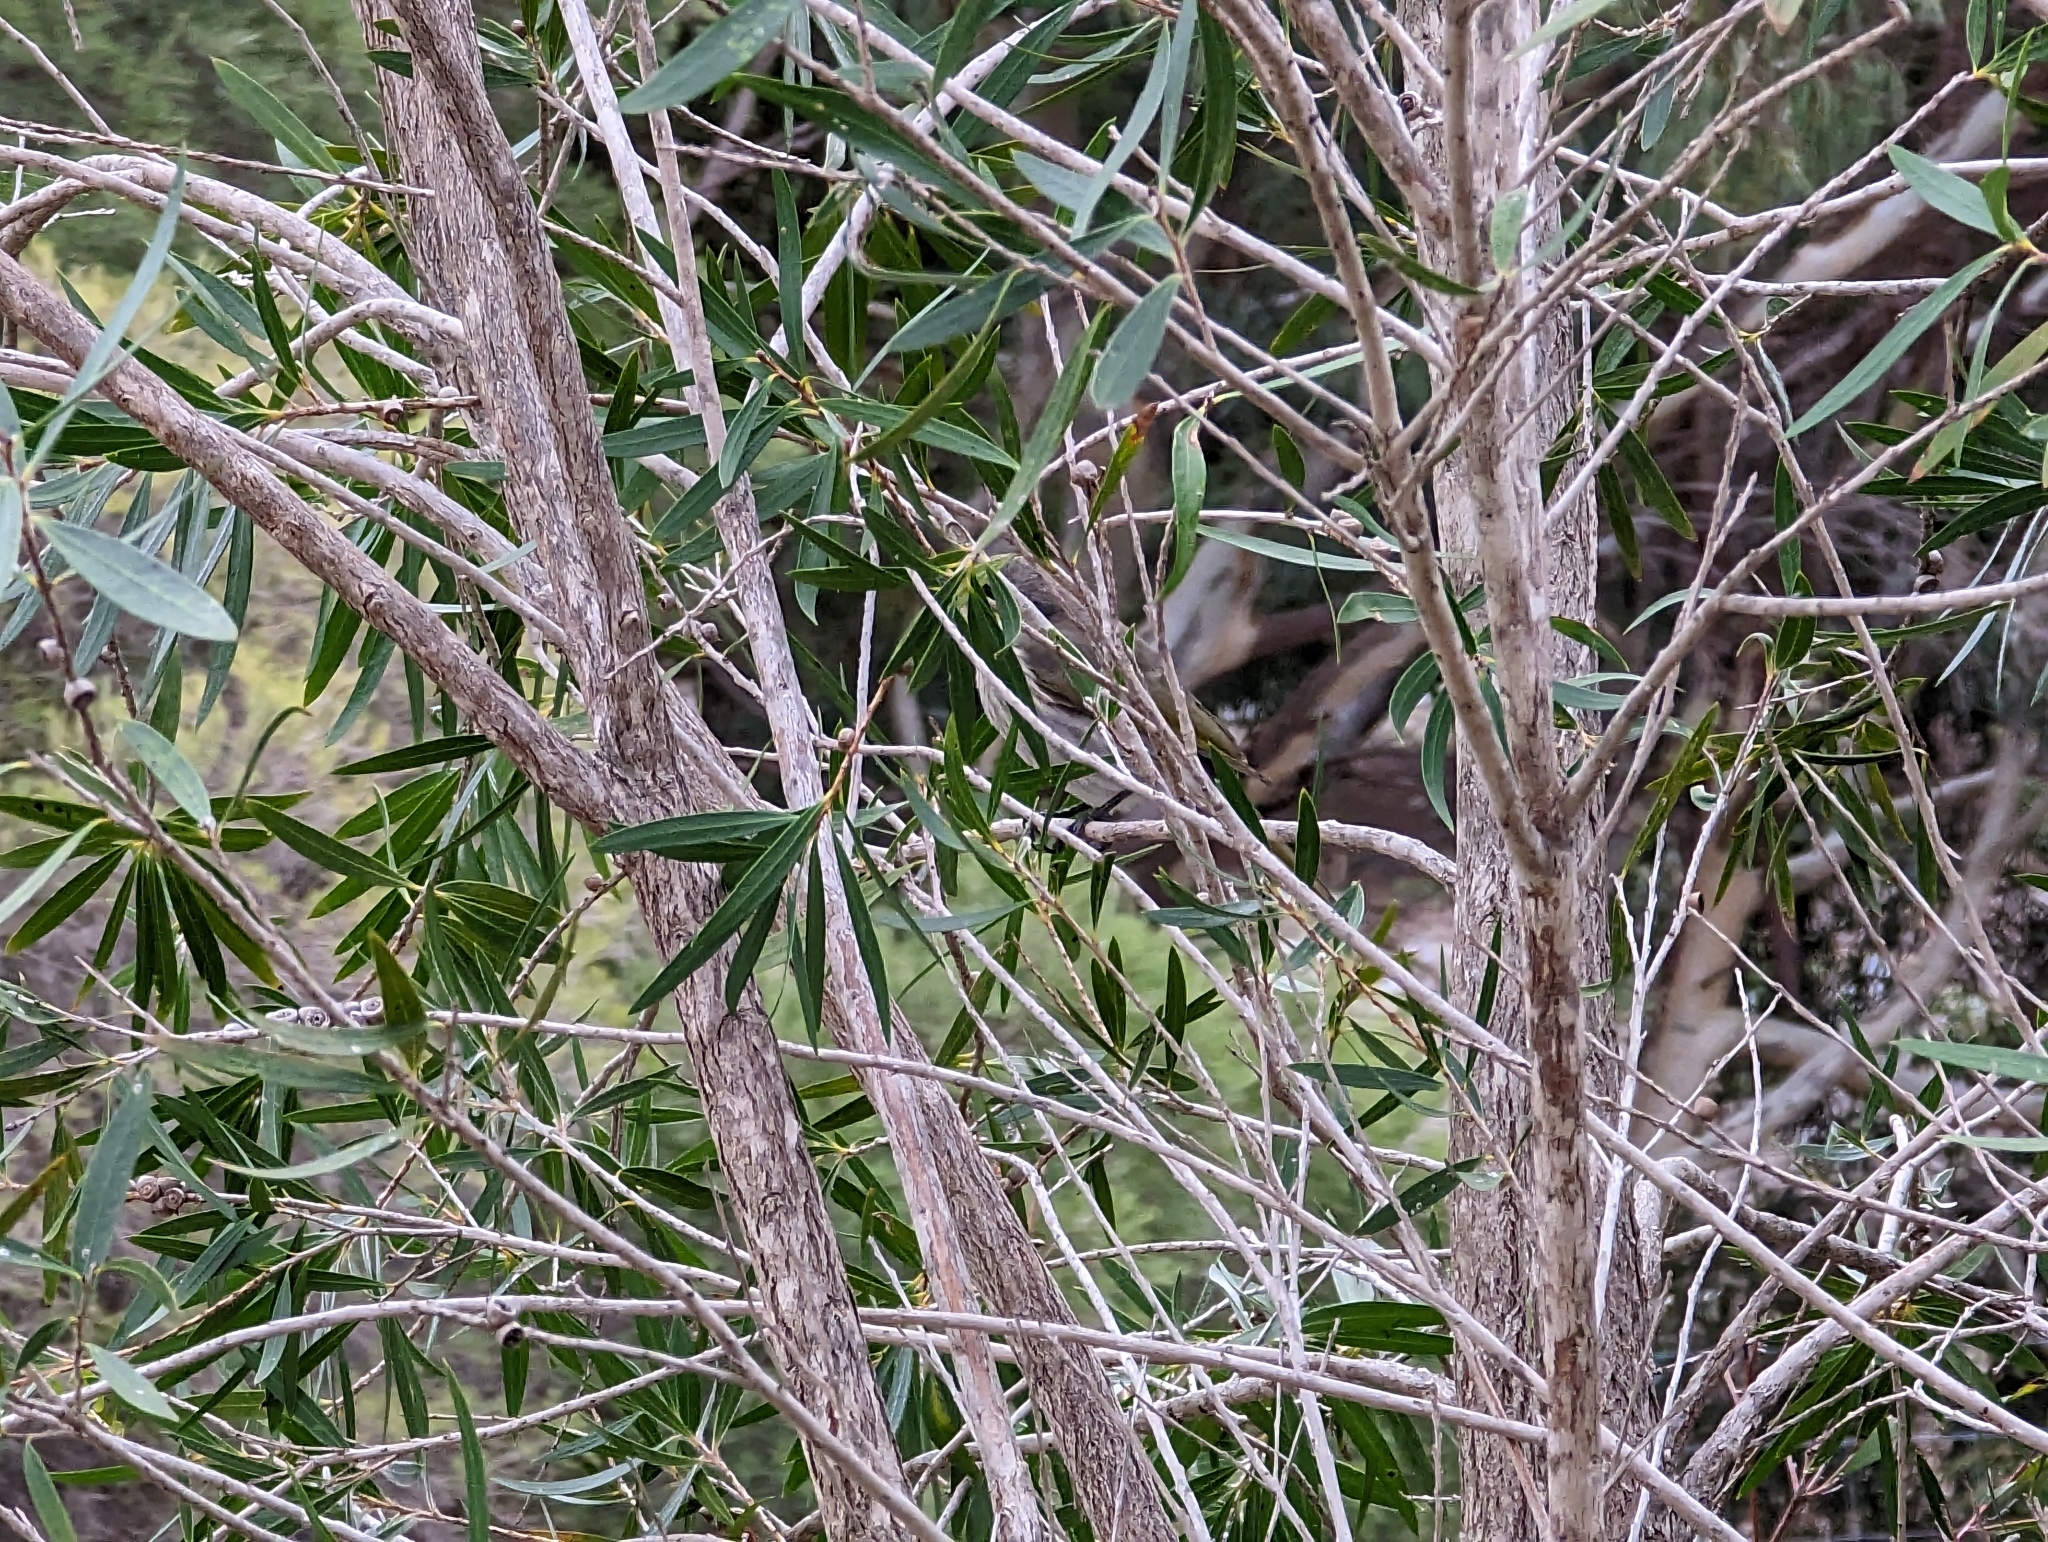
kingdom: Animalia
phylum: Chordata
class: Aves
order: Passeriformes
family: Meliphagidae
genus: Gavicalis
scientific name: Gavicalis virescens
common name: Singing honeyeater
